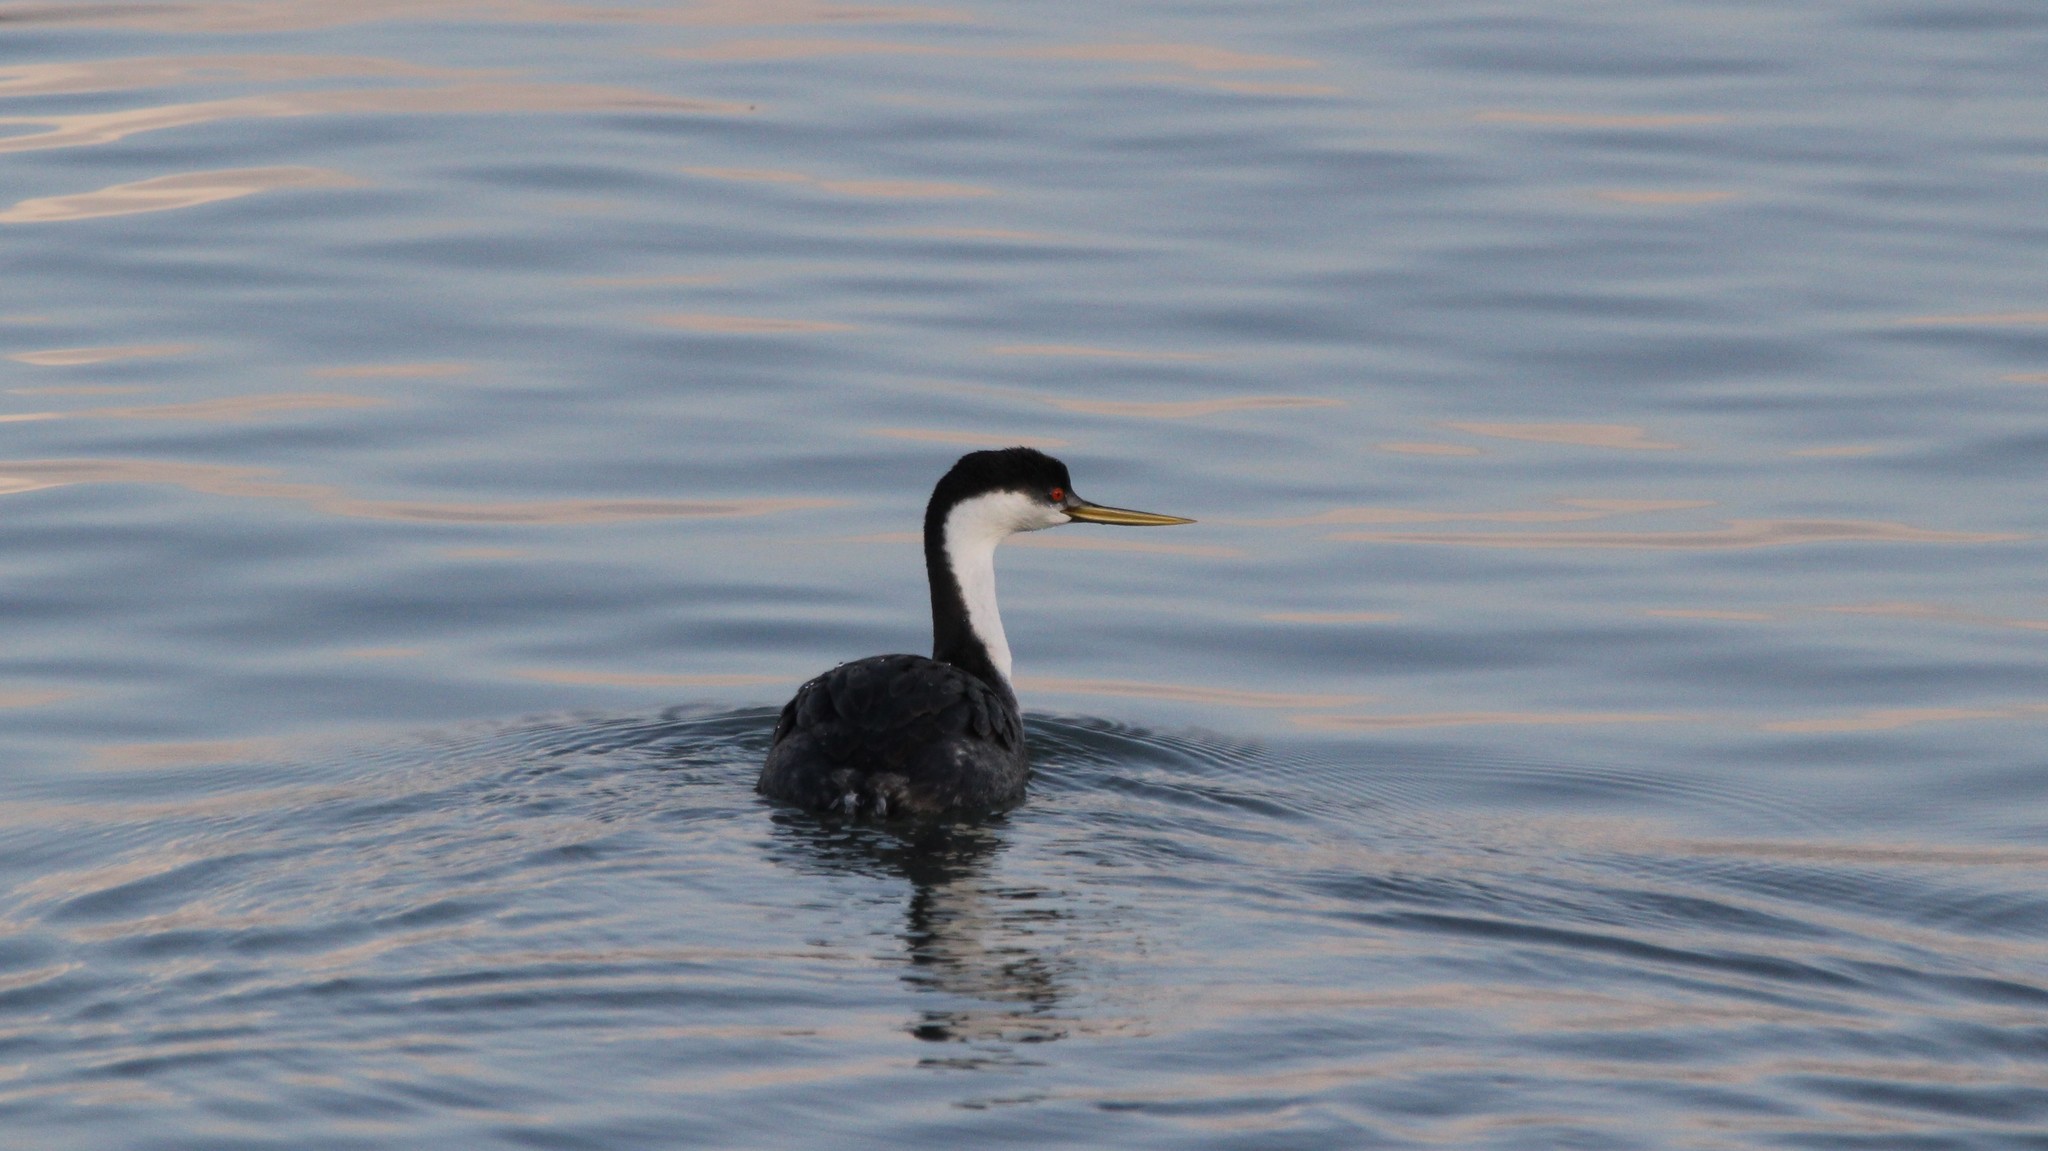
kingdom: Animalia
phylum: Chordata
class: Aves
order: Podicipediformes
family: Podicipedidae
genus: Aechmophorus
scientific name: Aechmophorus occidentalis
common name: Western grebe
